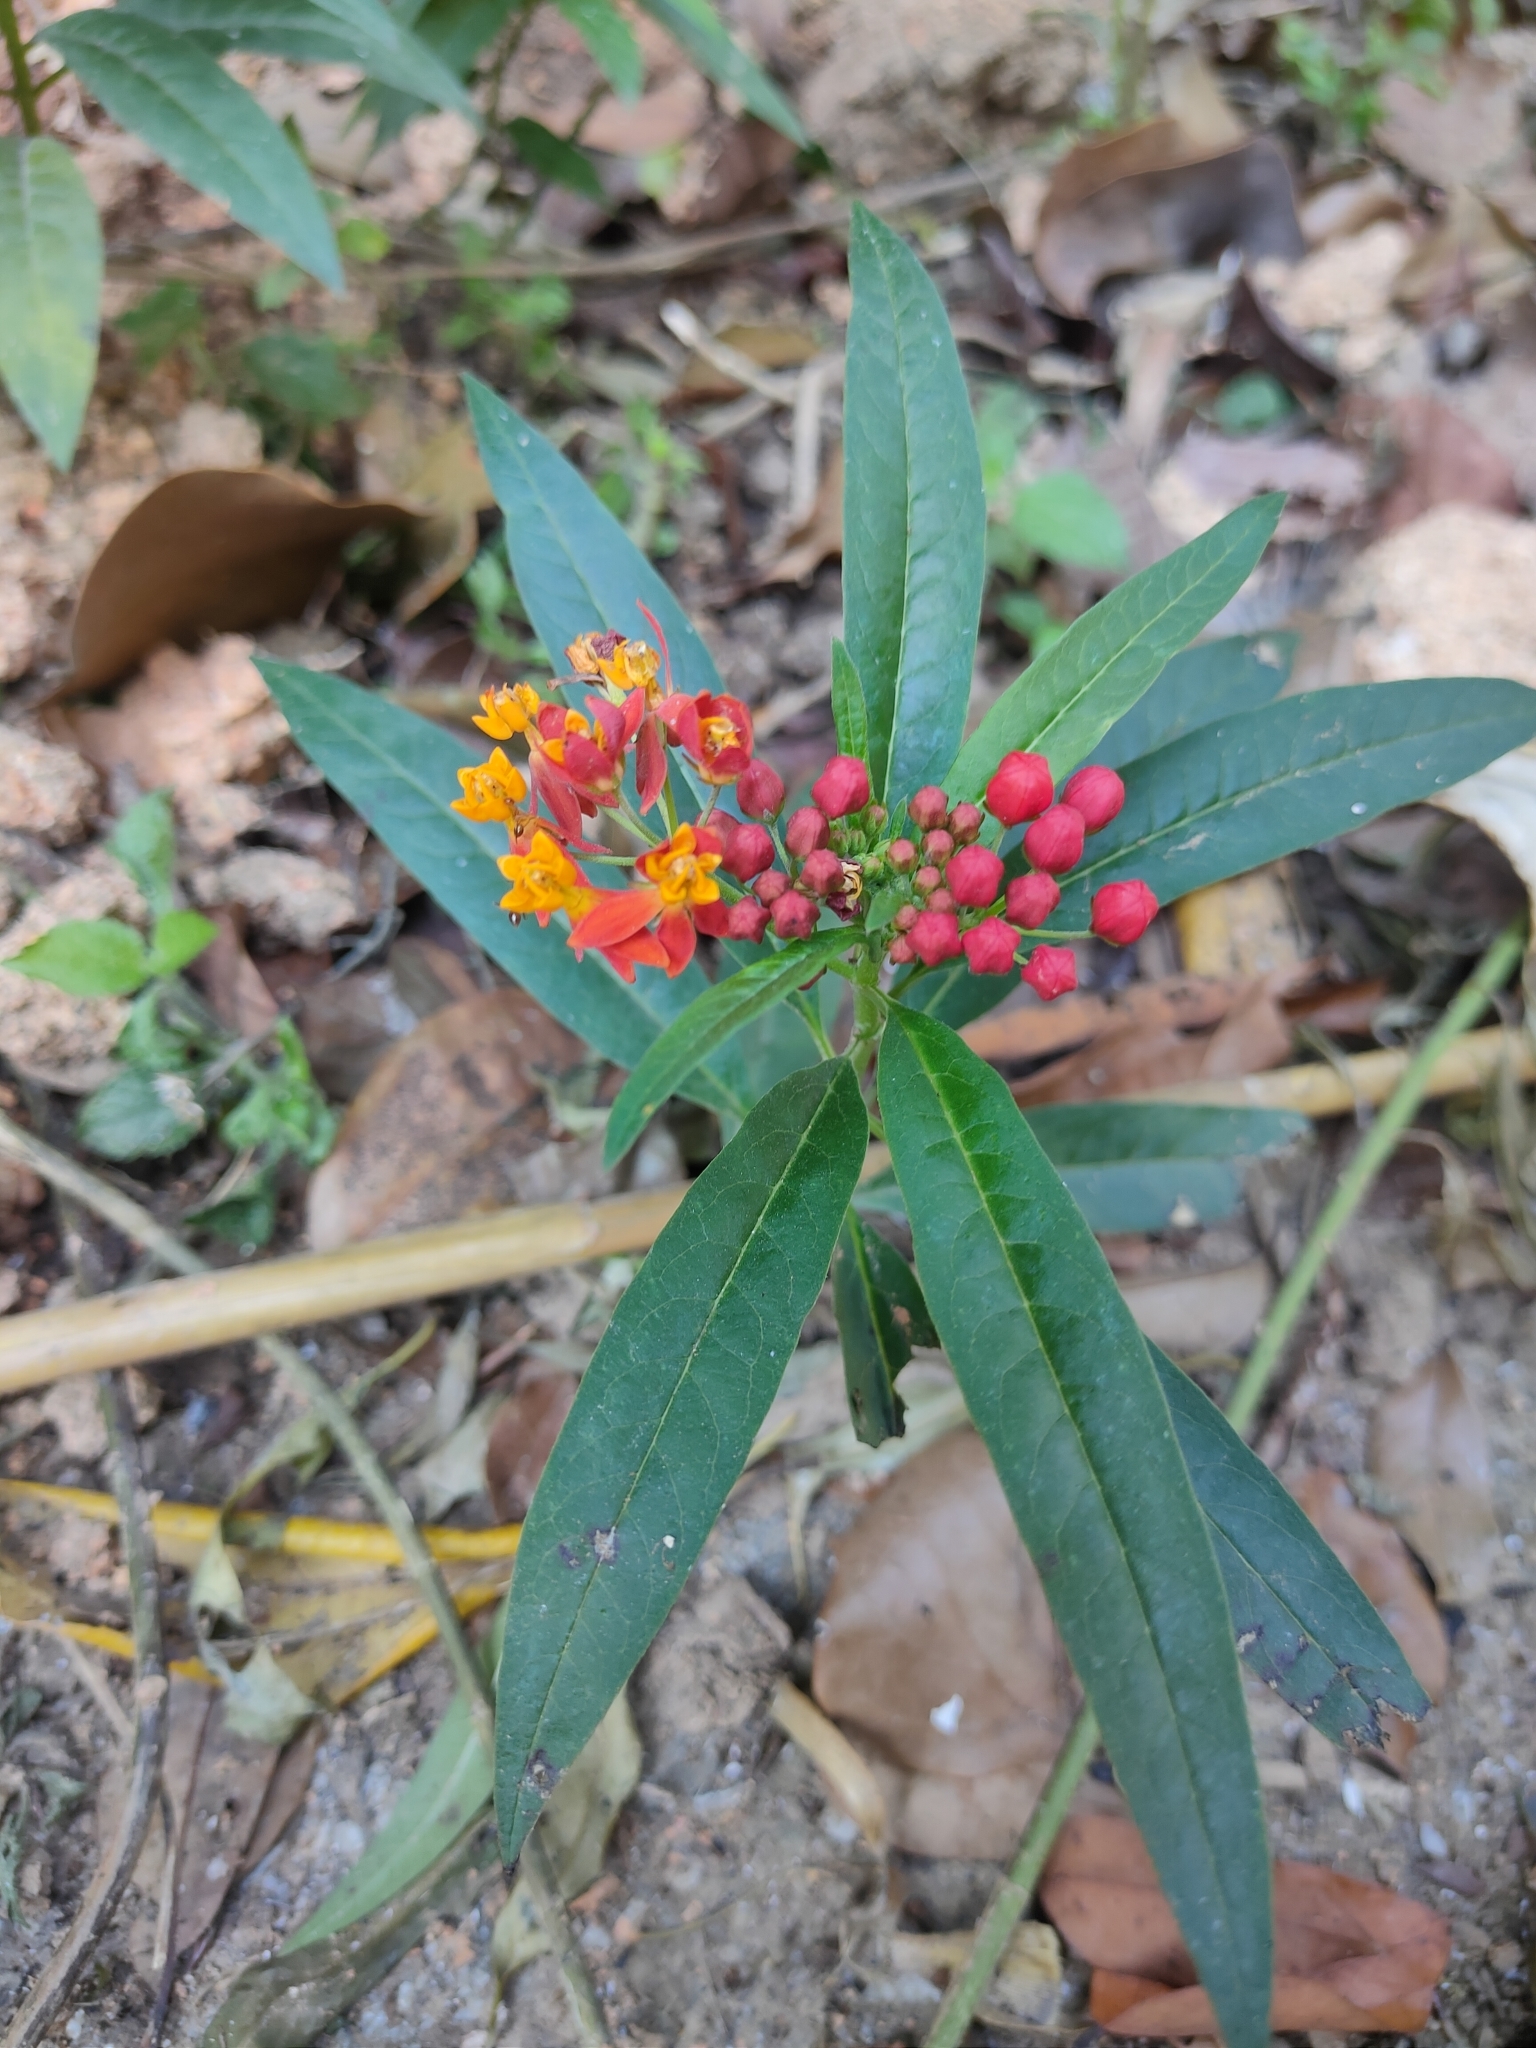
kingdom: Plantae
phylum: Tracheophyta
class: Magnoliopsida
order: Gentianales
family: Apocynaceae
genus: Asclepias
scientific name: Asclepias curassavica
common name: Bloodflower
